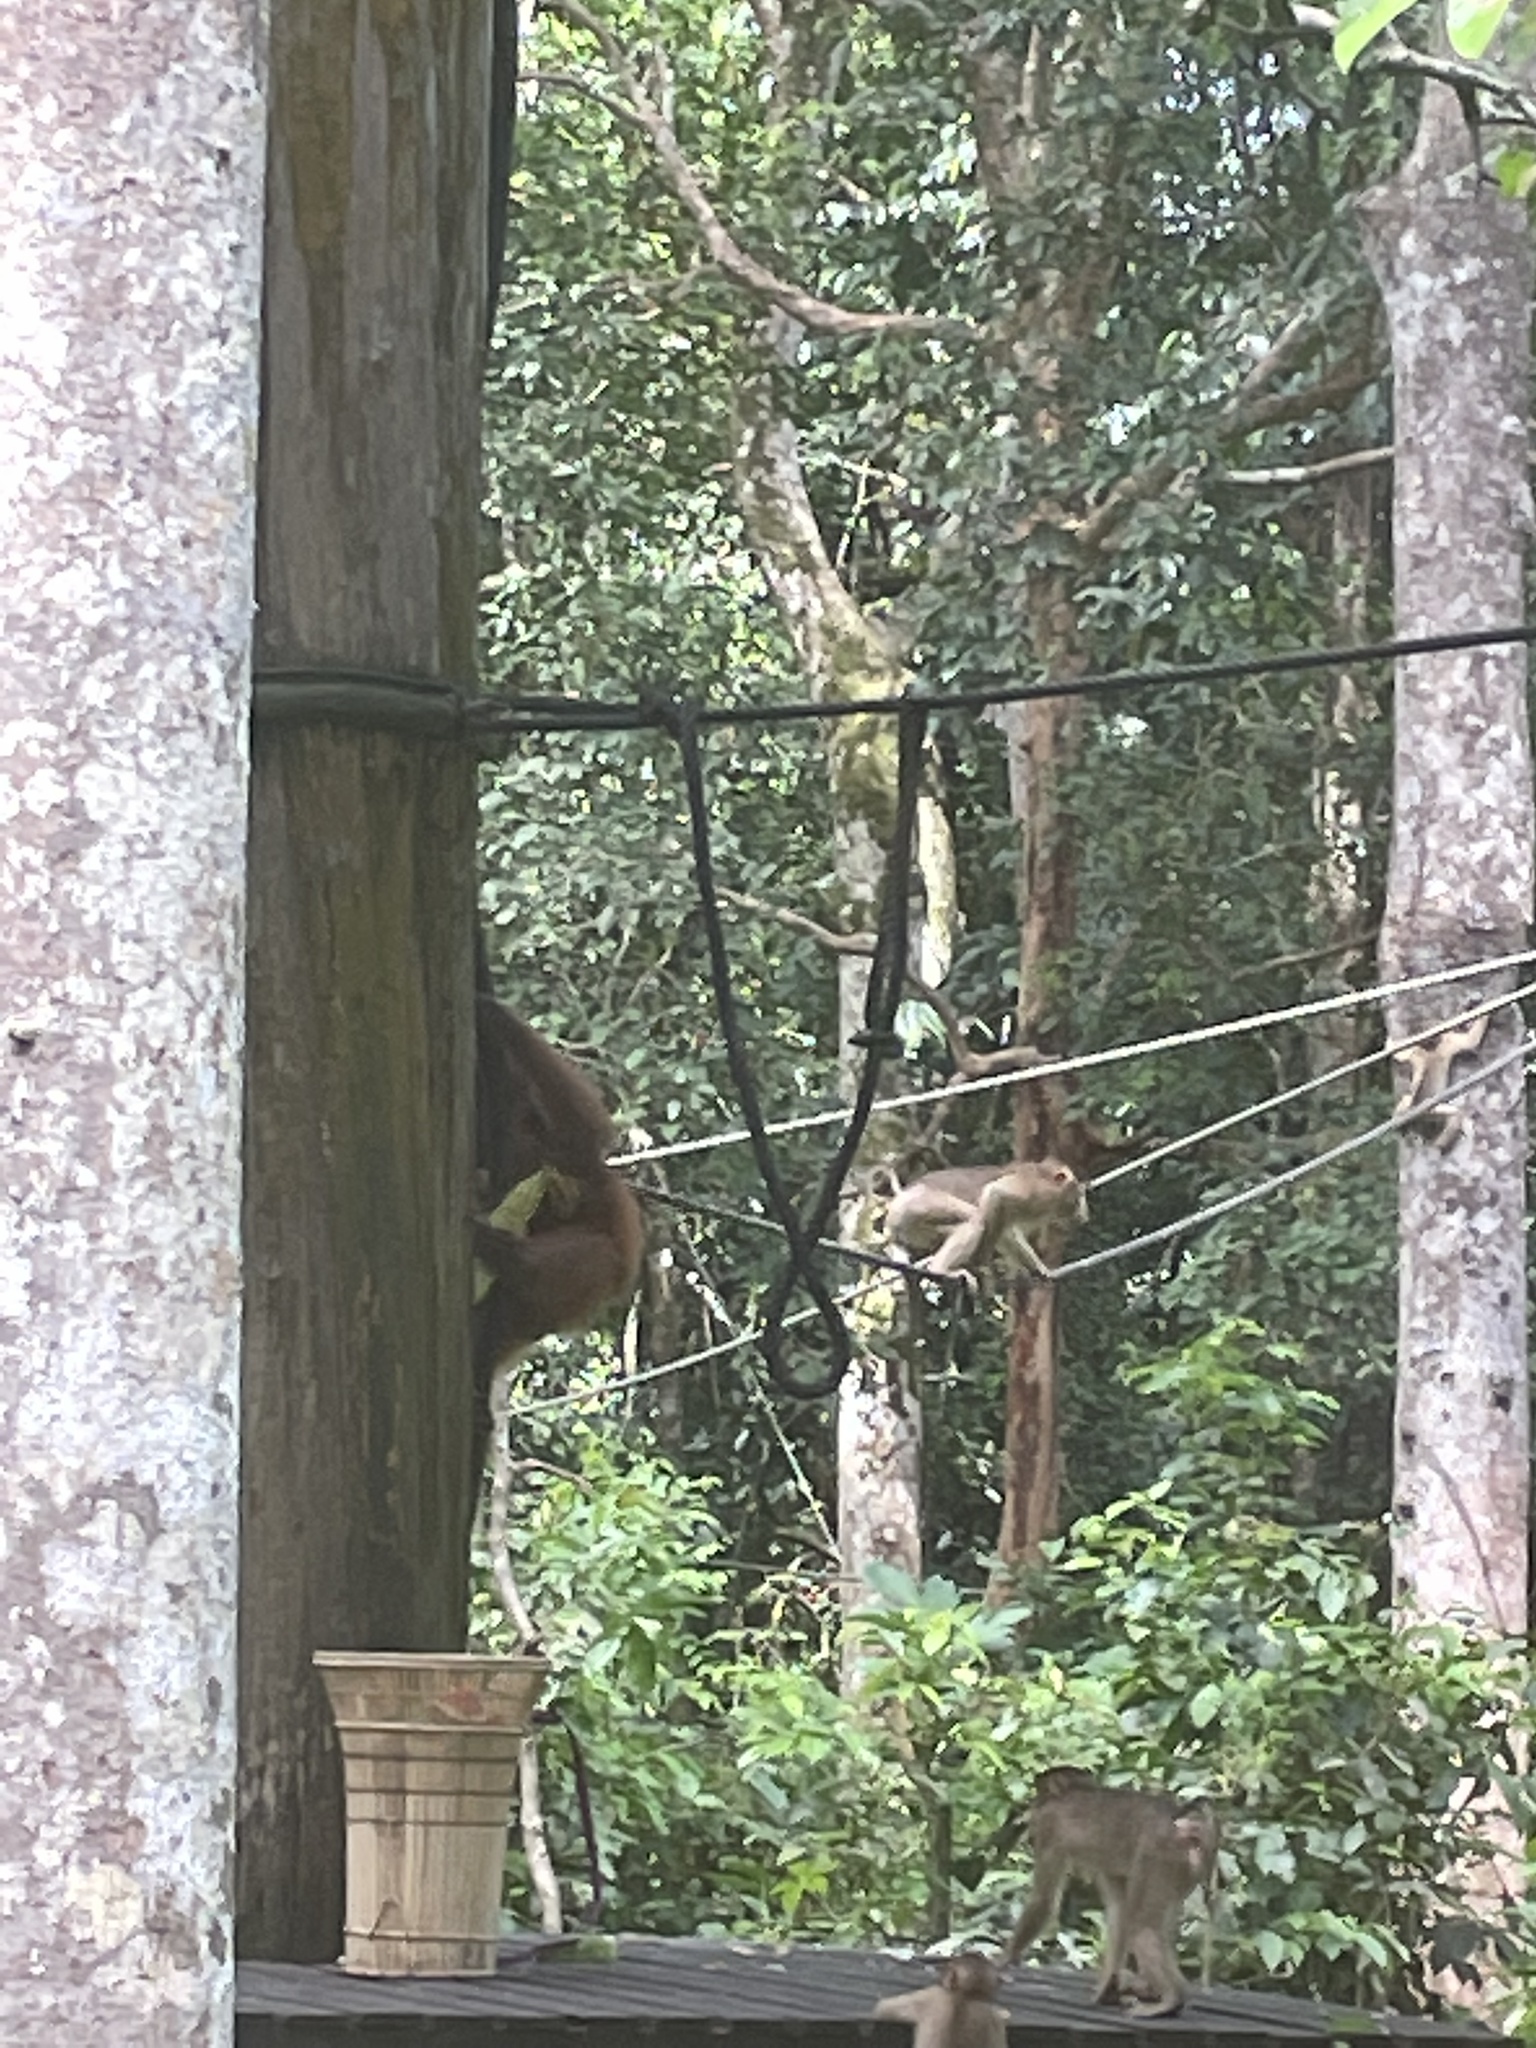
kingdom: Animalia
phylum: Chordata
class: Mammalia
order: Primates
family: Hominidae
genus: Pongo
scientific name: Pongo pygmaeus
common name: Bornean orangutan
